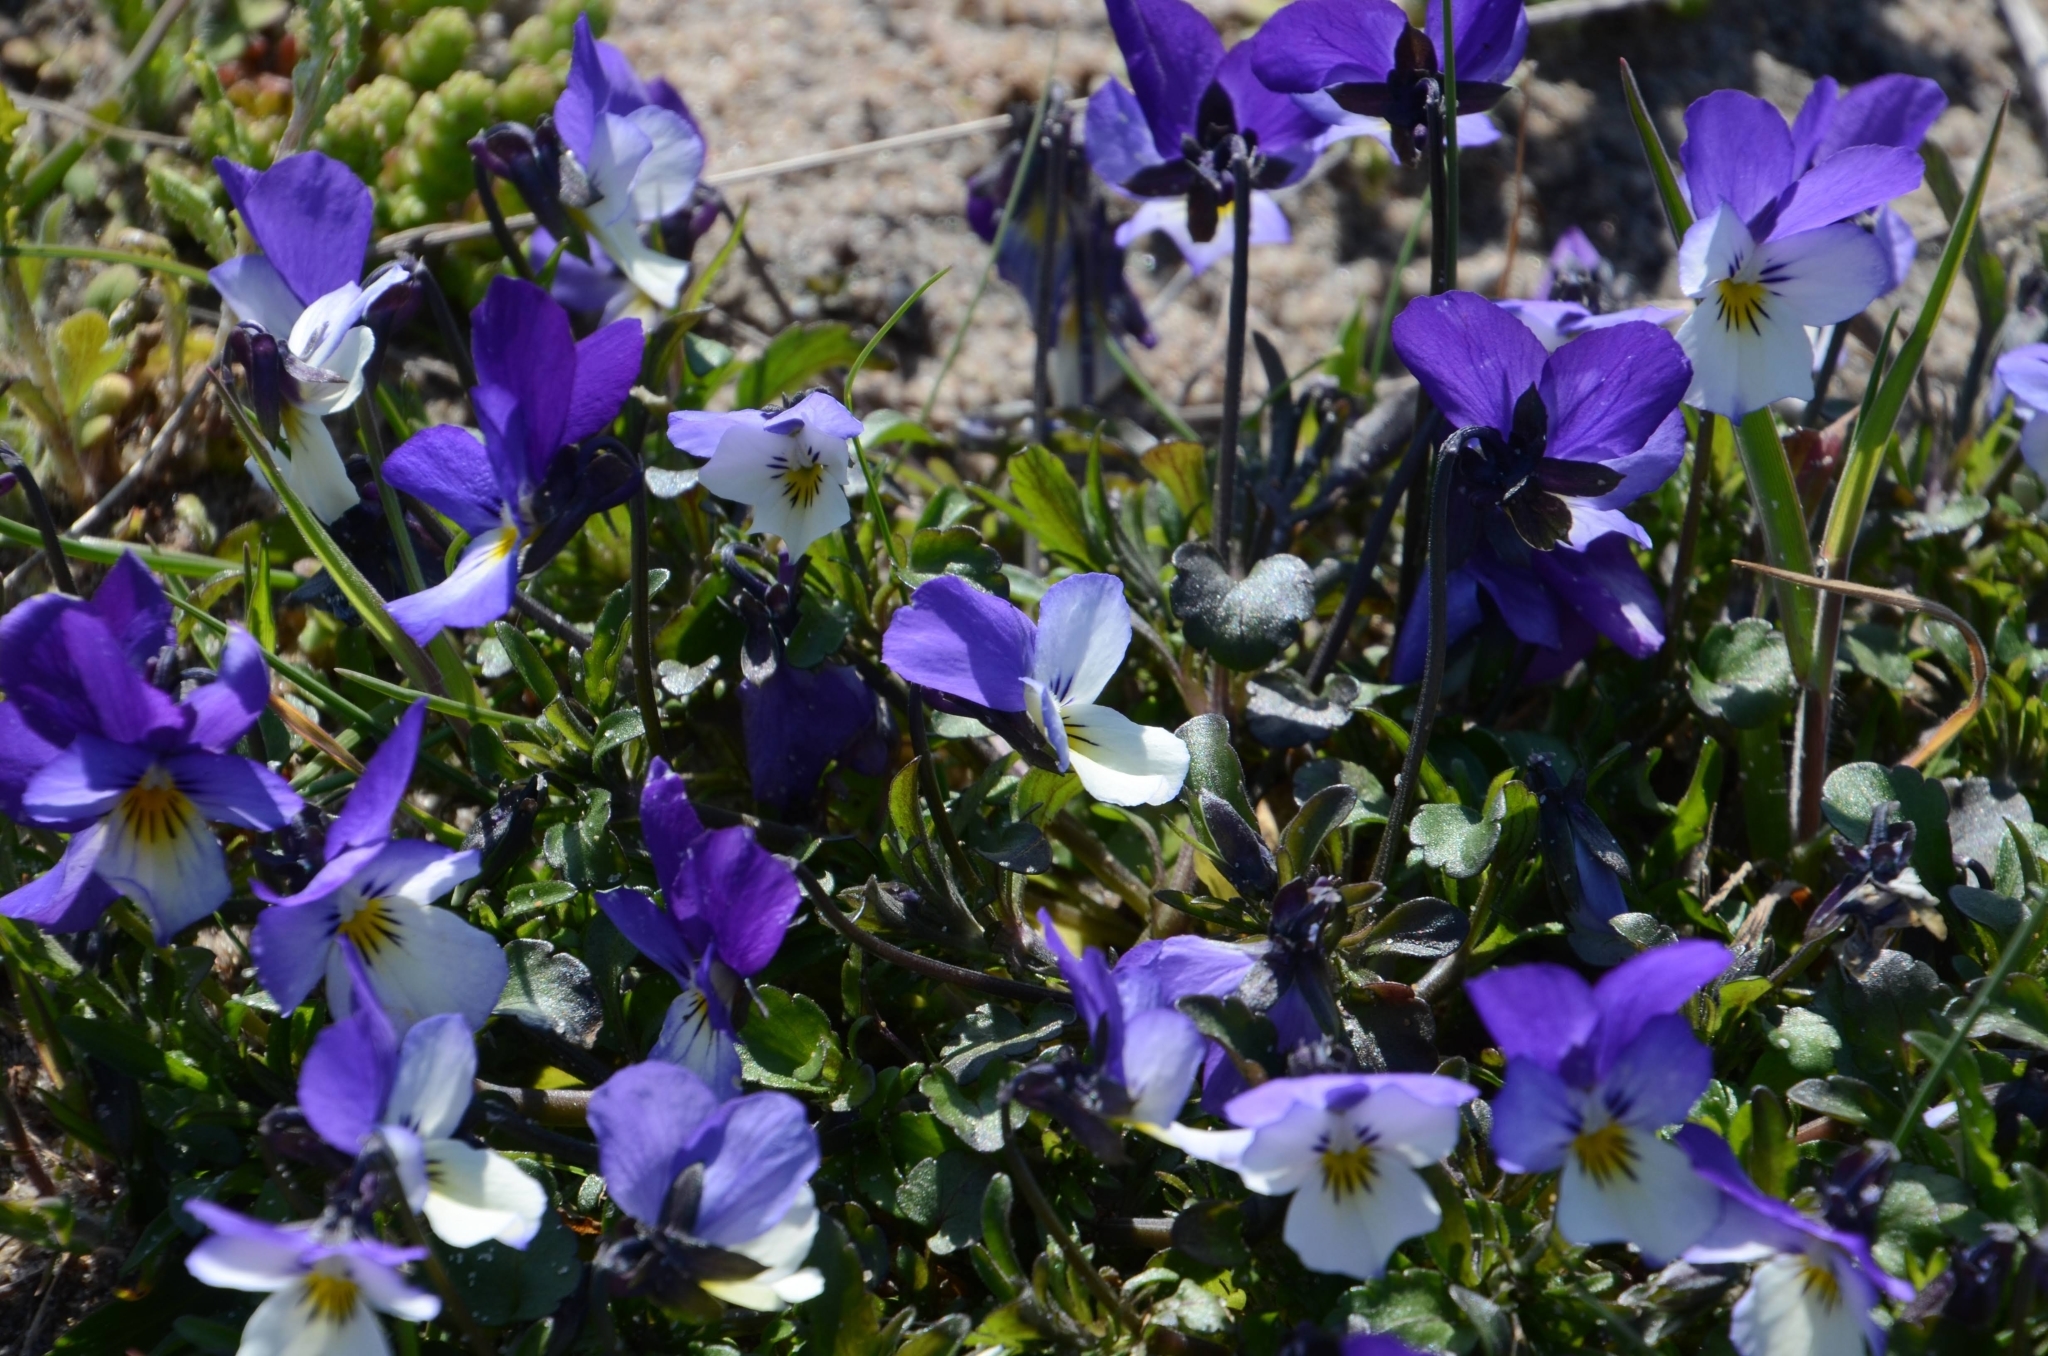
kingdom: Plantae
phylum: Tracheophyta
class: Magnoliopsida
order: Malpighiales
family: Violaceae
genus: Viola
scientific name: Viola tricolor
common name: Pansy
